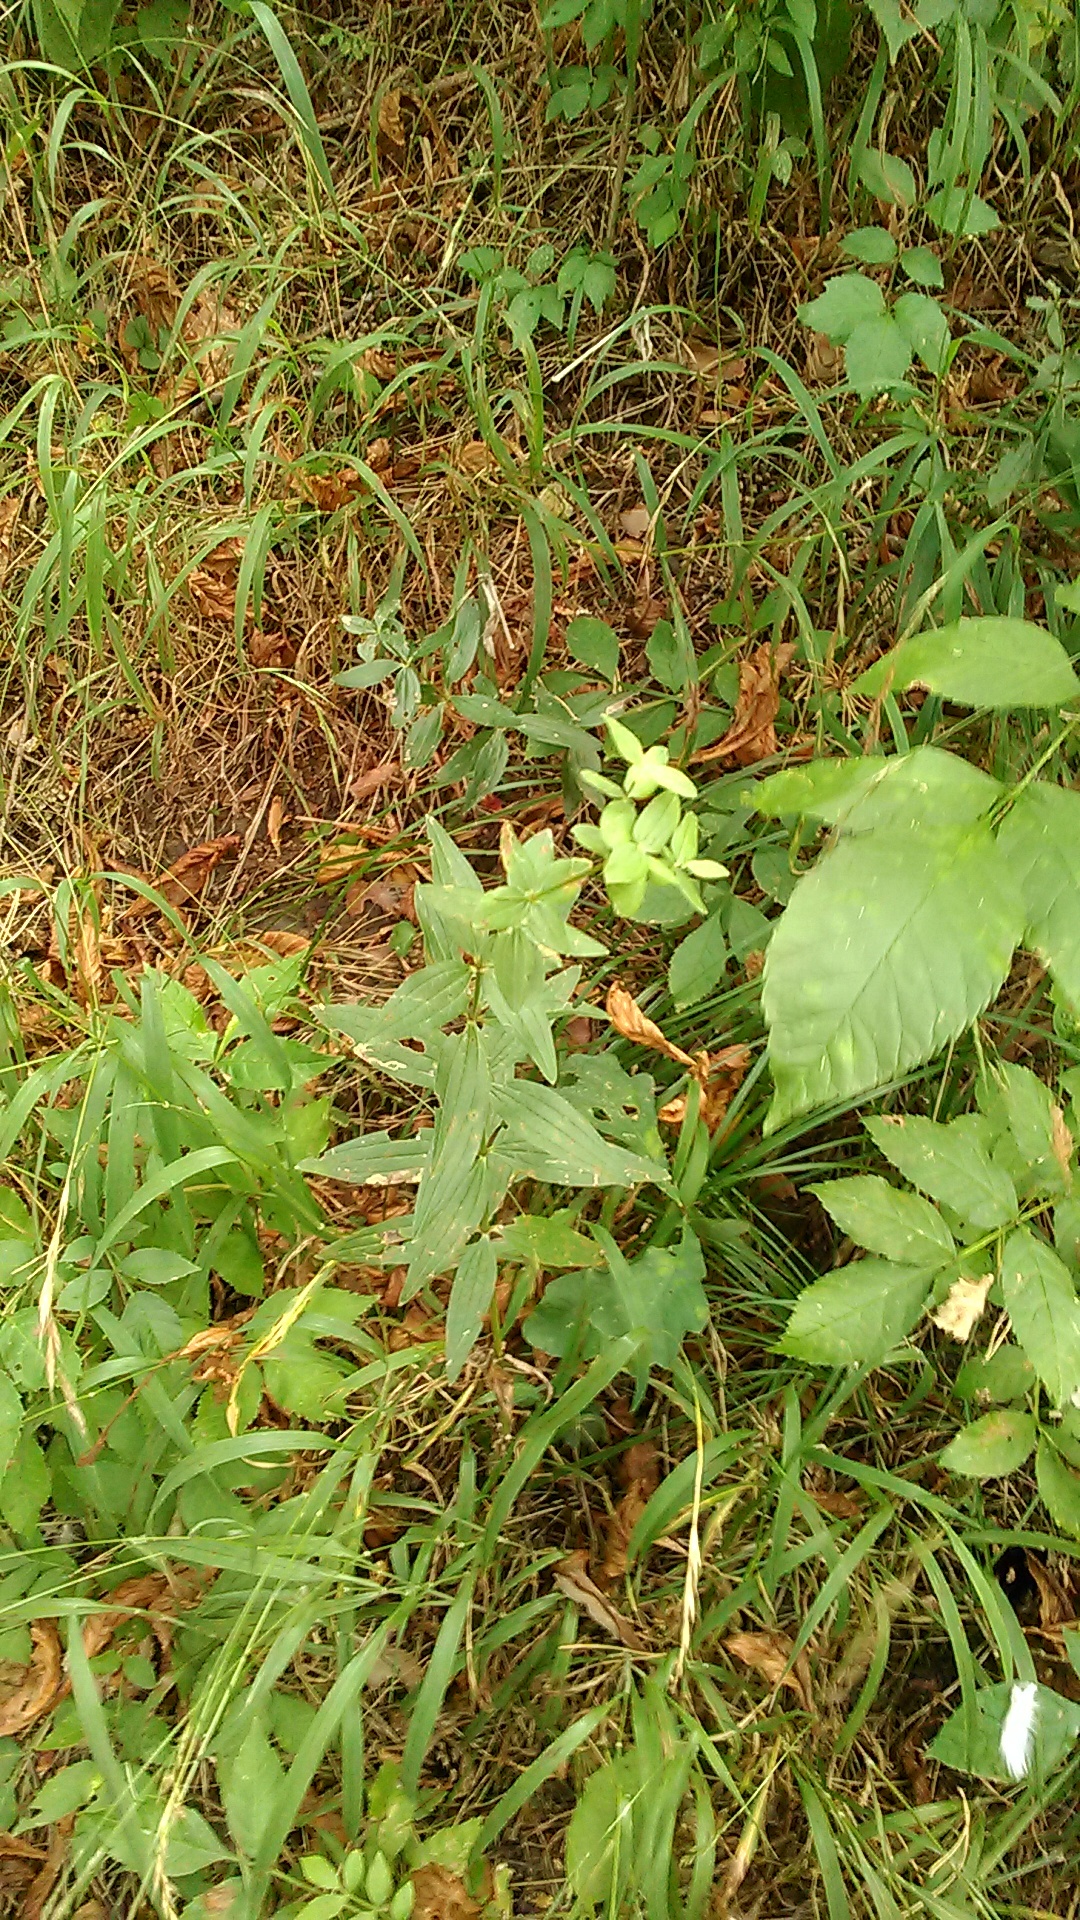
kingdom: Plantae
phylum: Tracheophyta
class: Magnoliopsida
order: Gentianales
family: Rubiaceae
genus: Galium
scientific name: Galium rubioides
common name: European bedstraw
